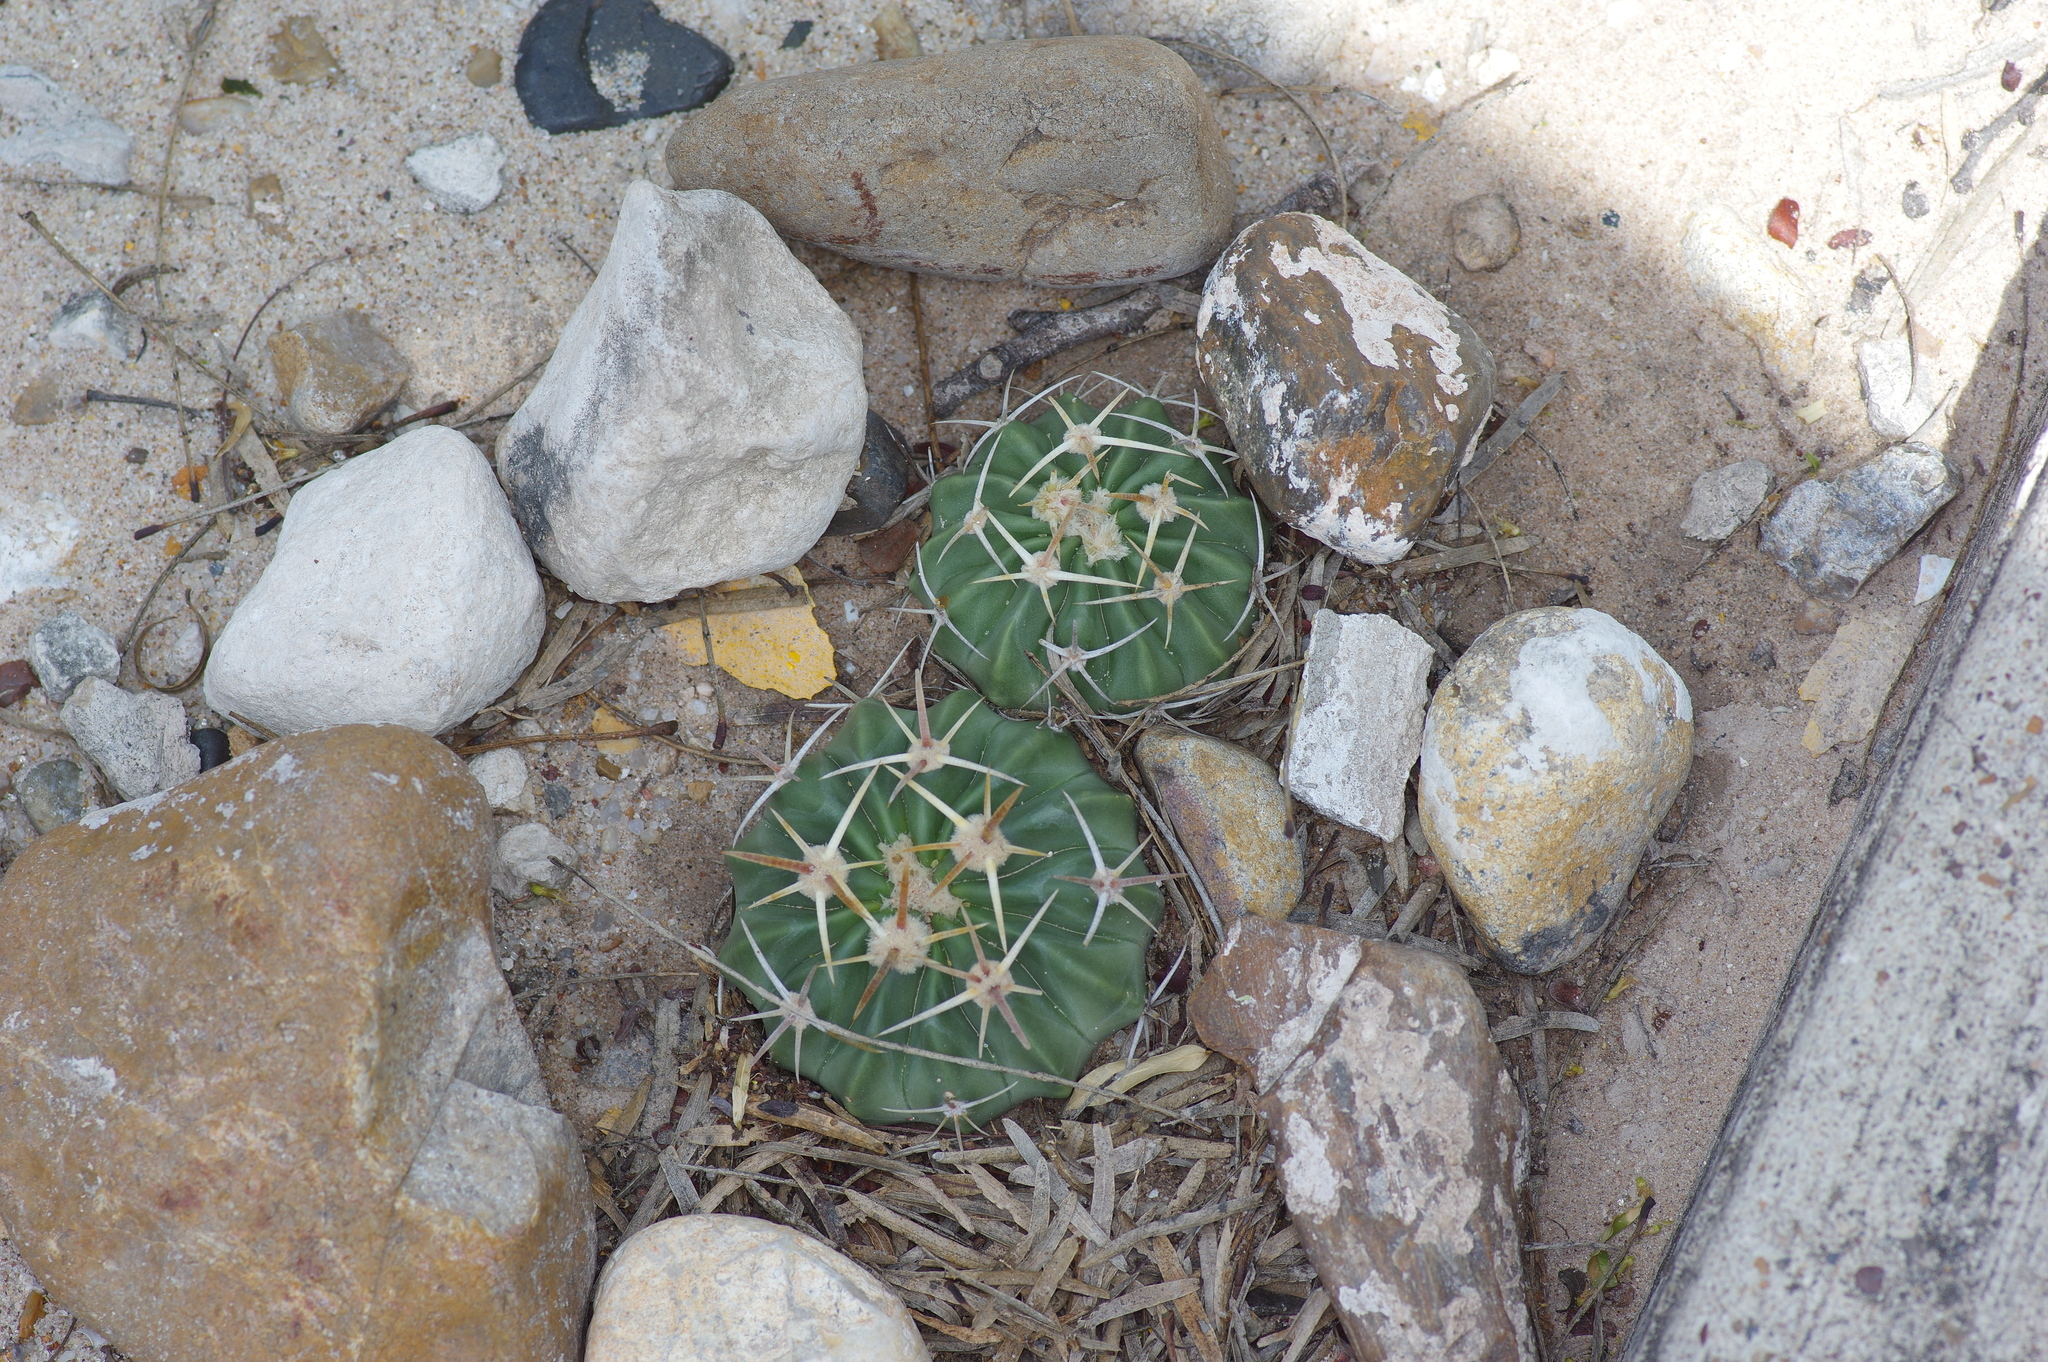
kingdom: Animalia
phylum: Arthropoda
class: Insecta
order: Mantodea
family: Thespidae
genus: Bistanta
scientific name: Bistanta campestris
